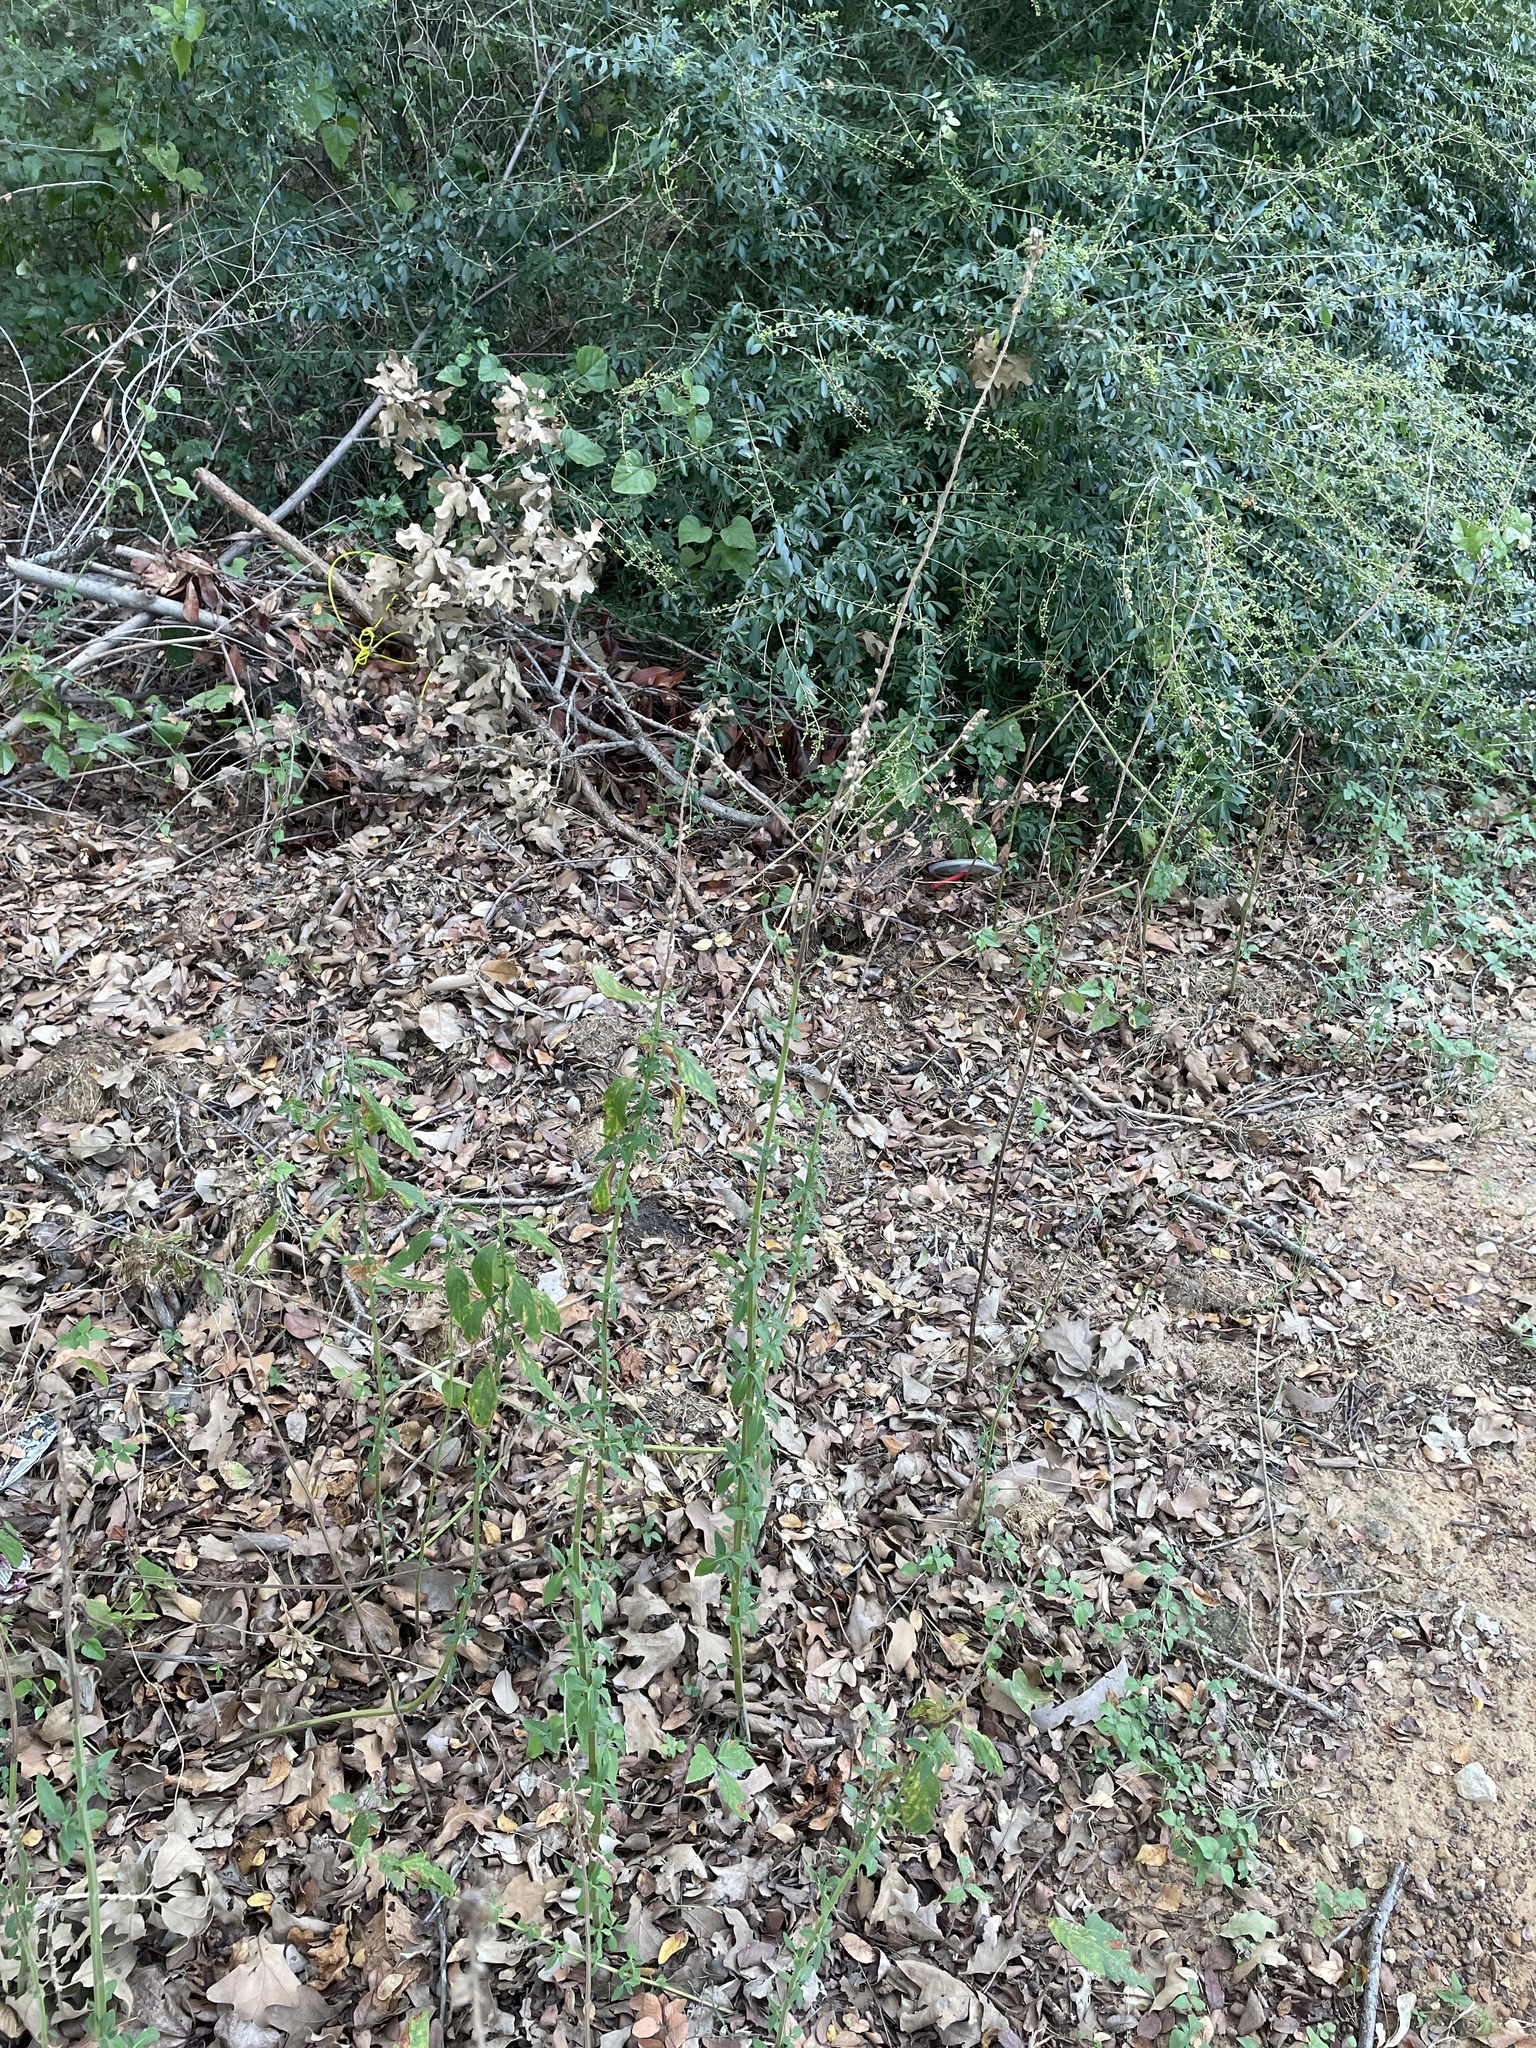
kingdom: Plantae
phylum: Tracheophyta
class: Magnoliopsida
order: Lamiales
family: Lamiaceae
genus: Teucrium
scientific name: Teucrium canadense
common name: American germander
